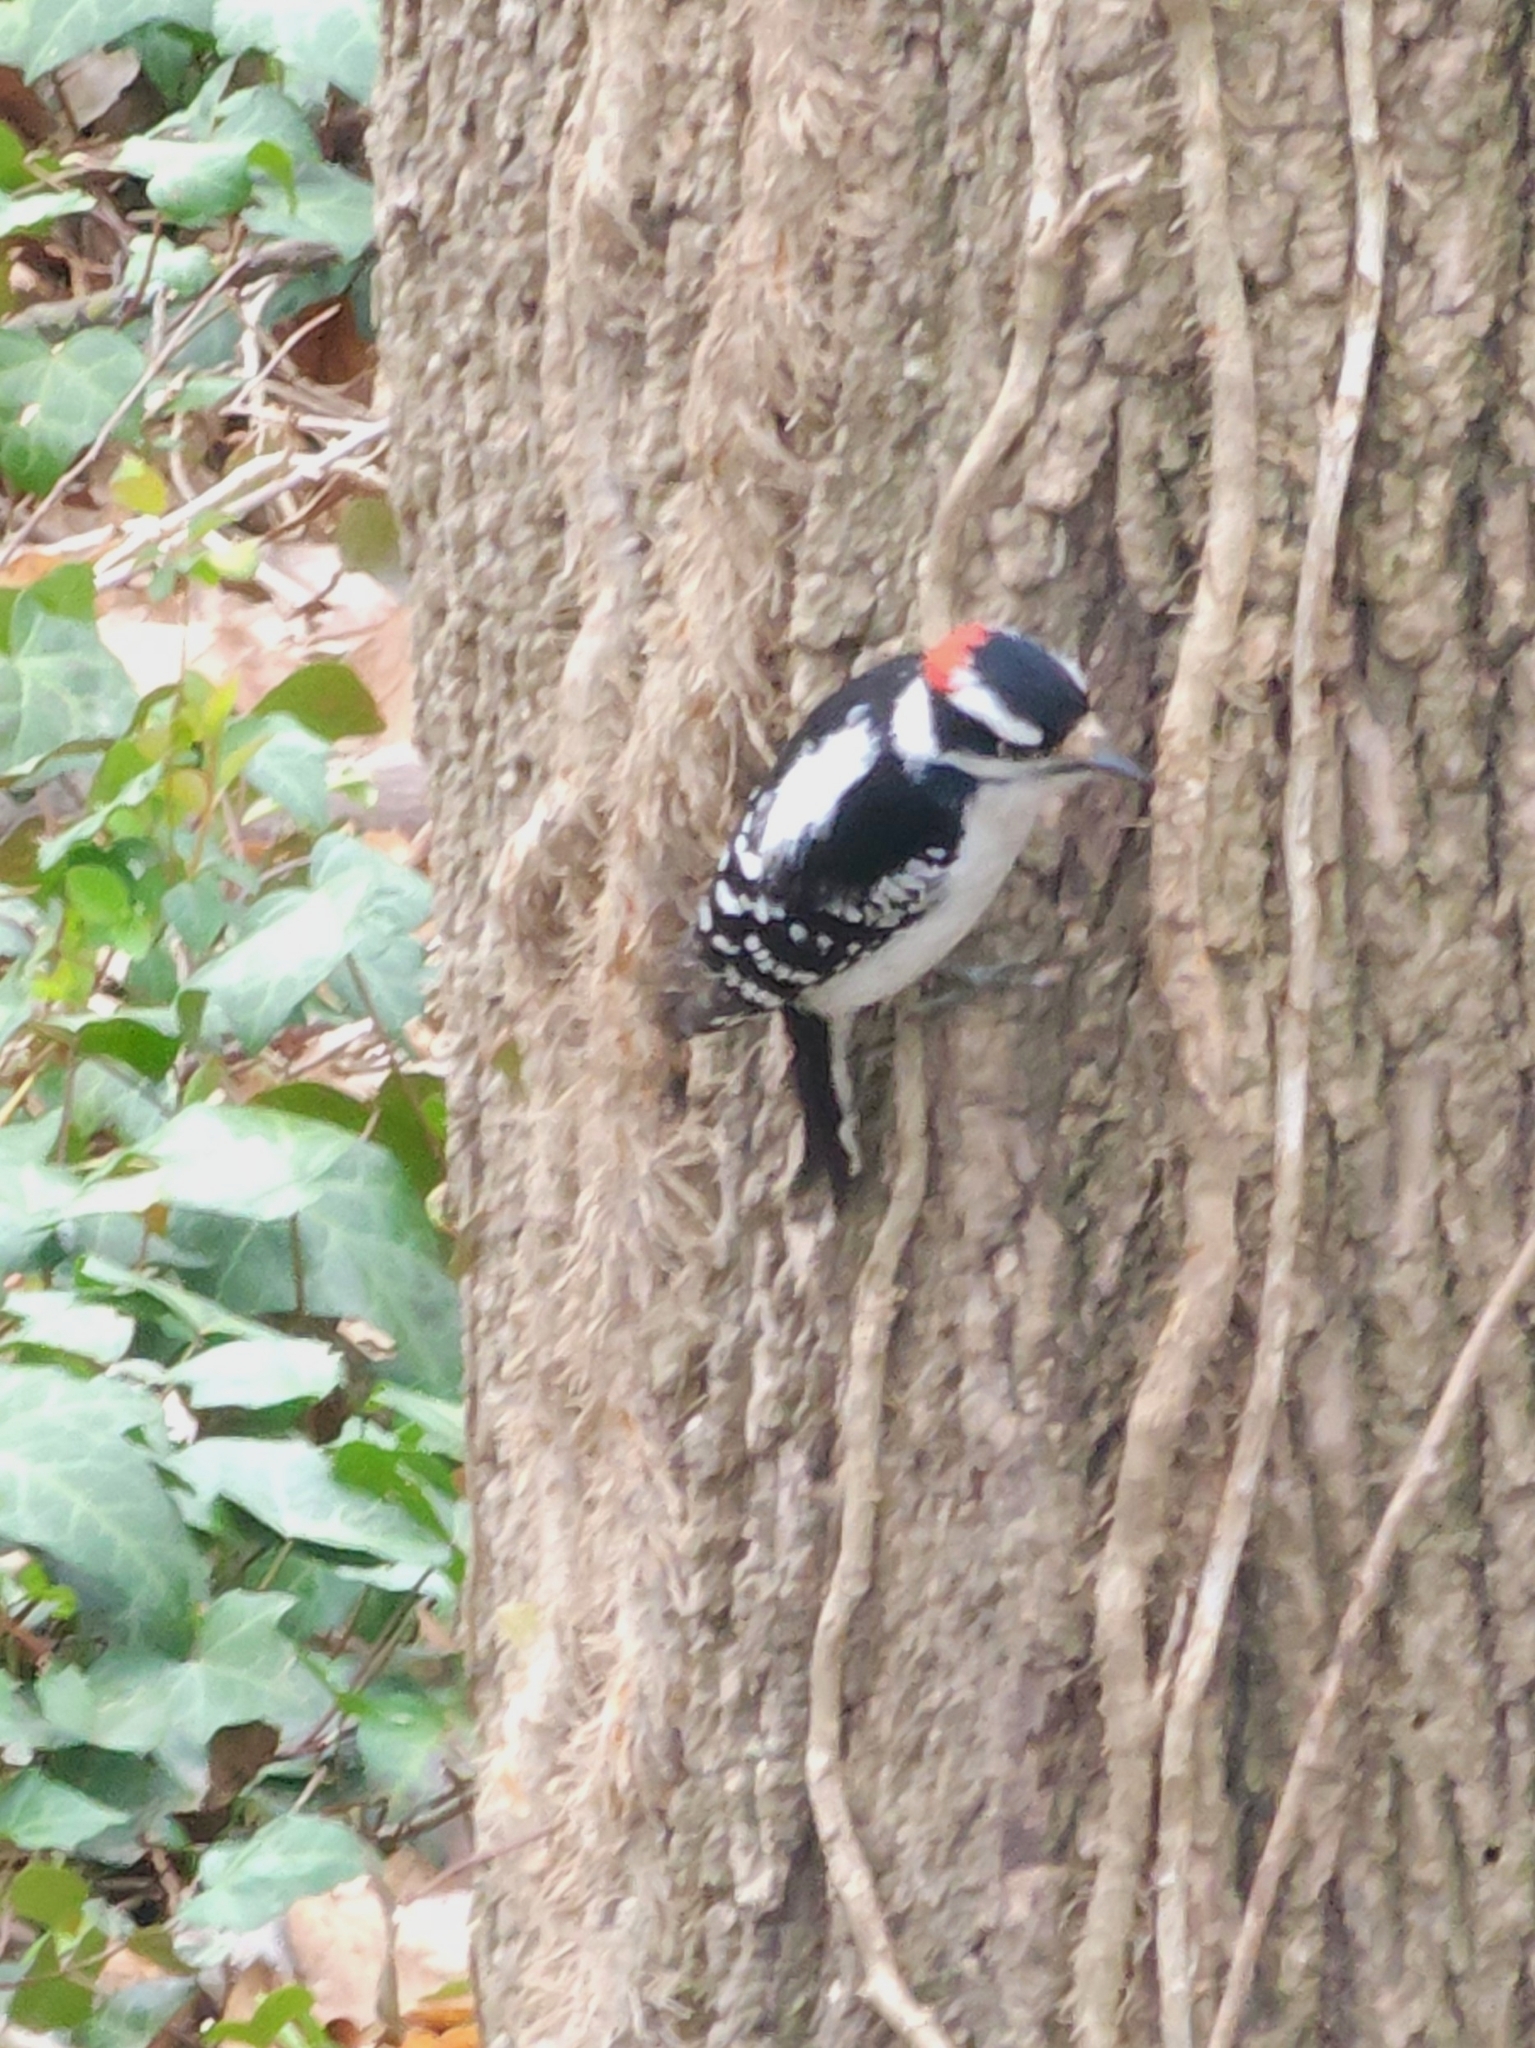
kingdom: Animalia
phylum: Chordata
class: Aves
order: Piciformes
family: Picidae
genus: Dryobates
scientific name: Dryobates pubescens
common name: Downy woodpecker
